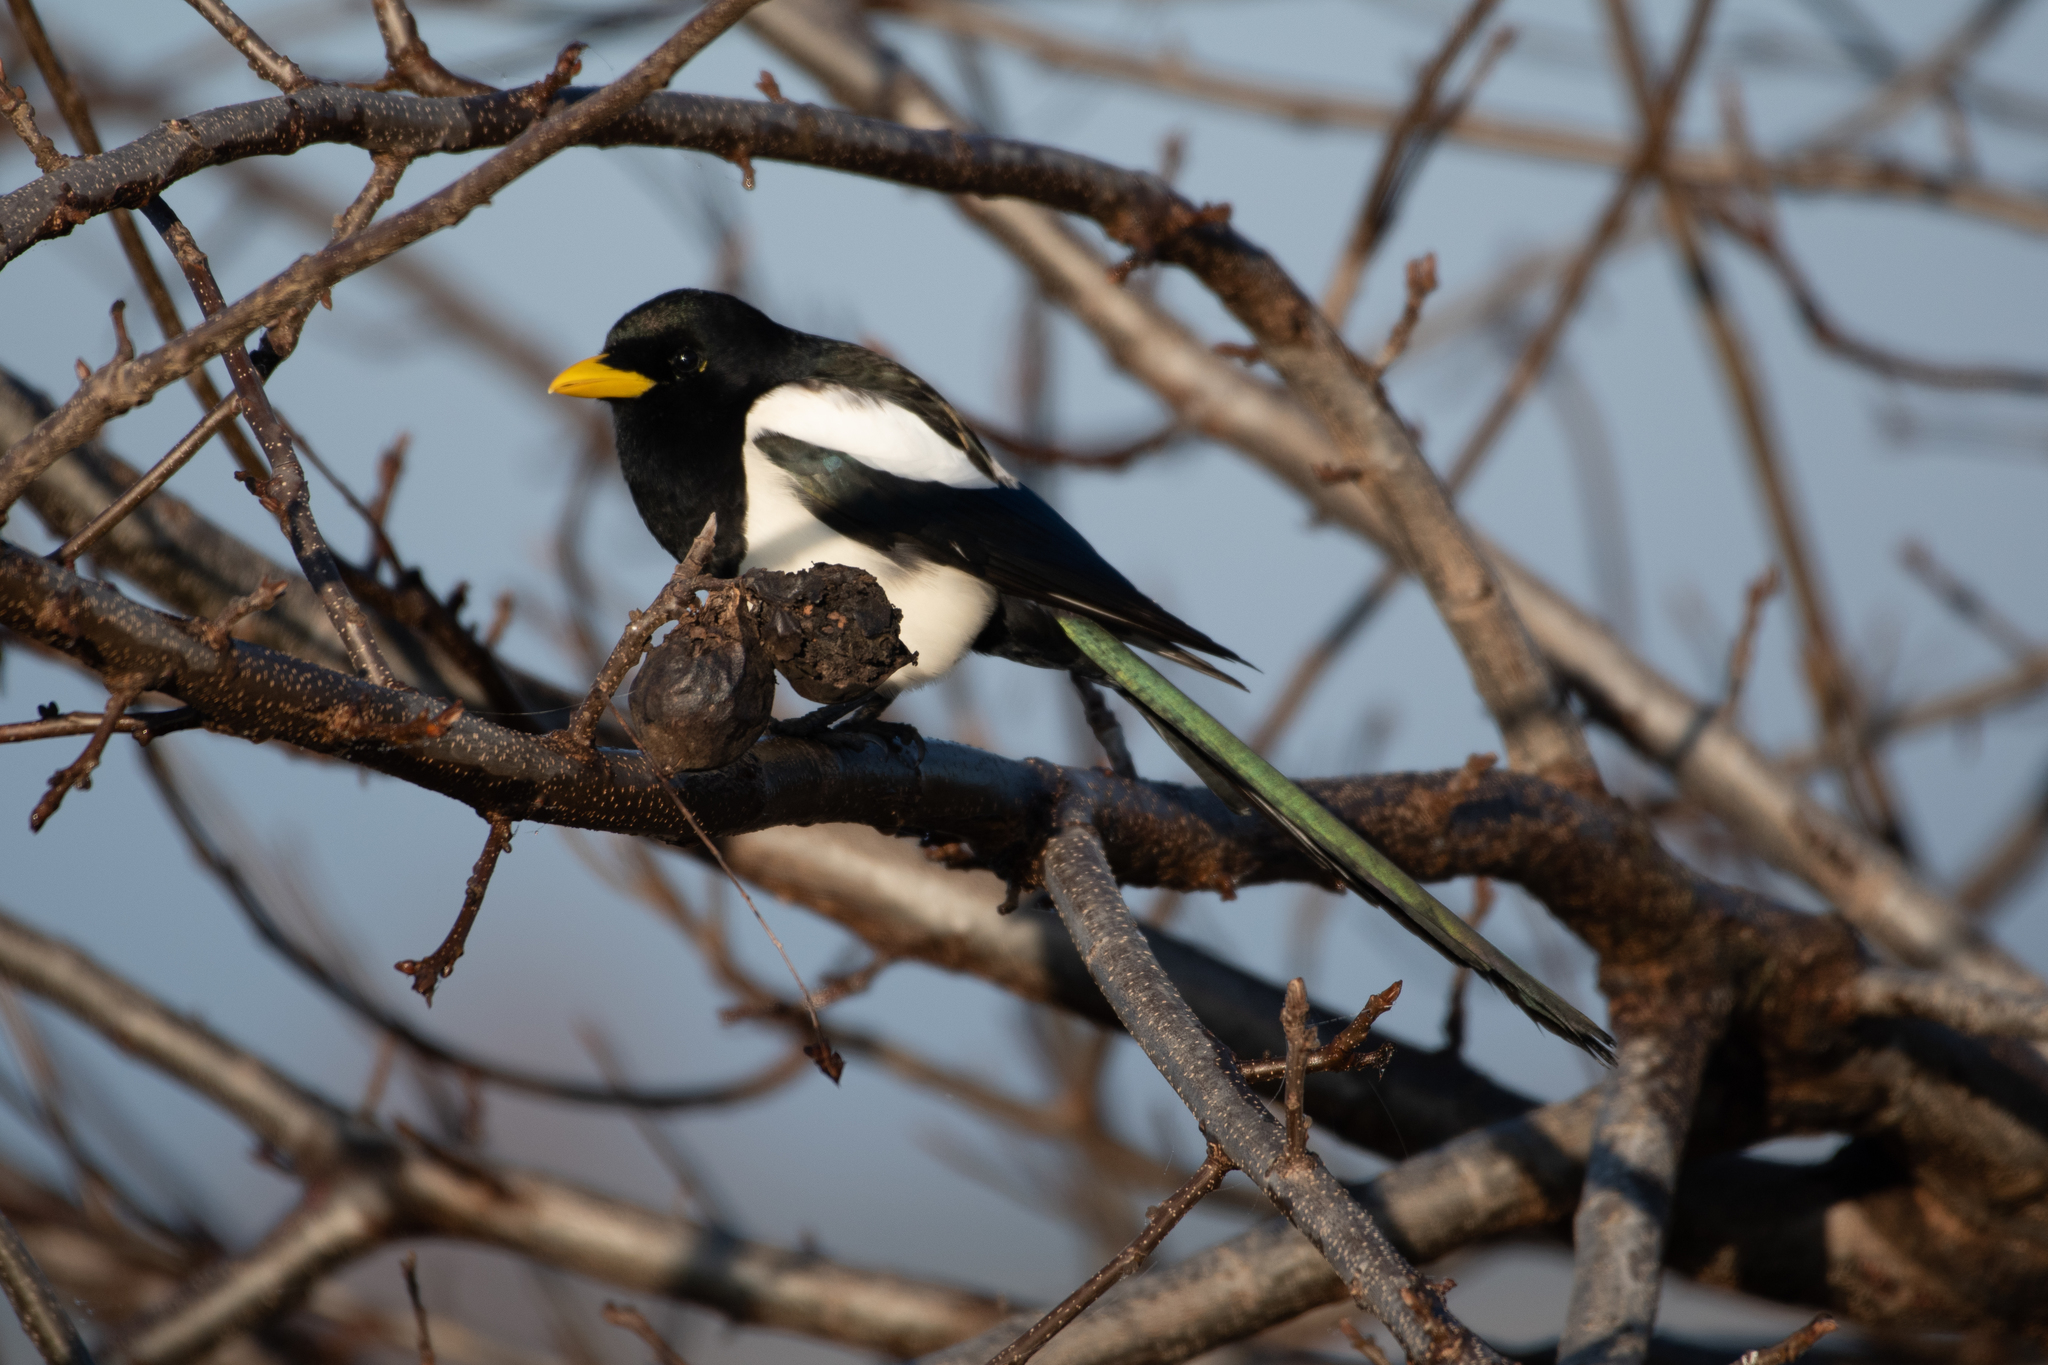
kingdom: Animalia
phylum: Chordata
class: Aves
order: Passeriformes
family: Corvidae
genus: Pica
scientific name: Pica nuttalli
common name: Yellow-billed magpie
